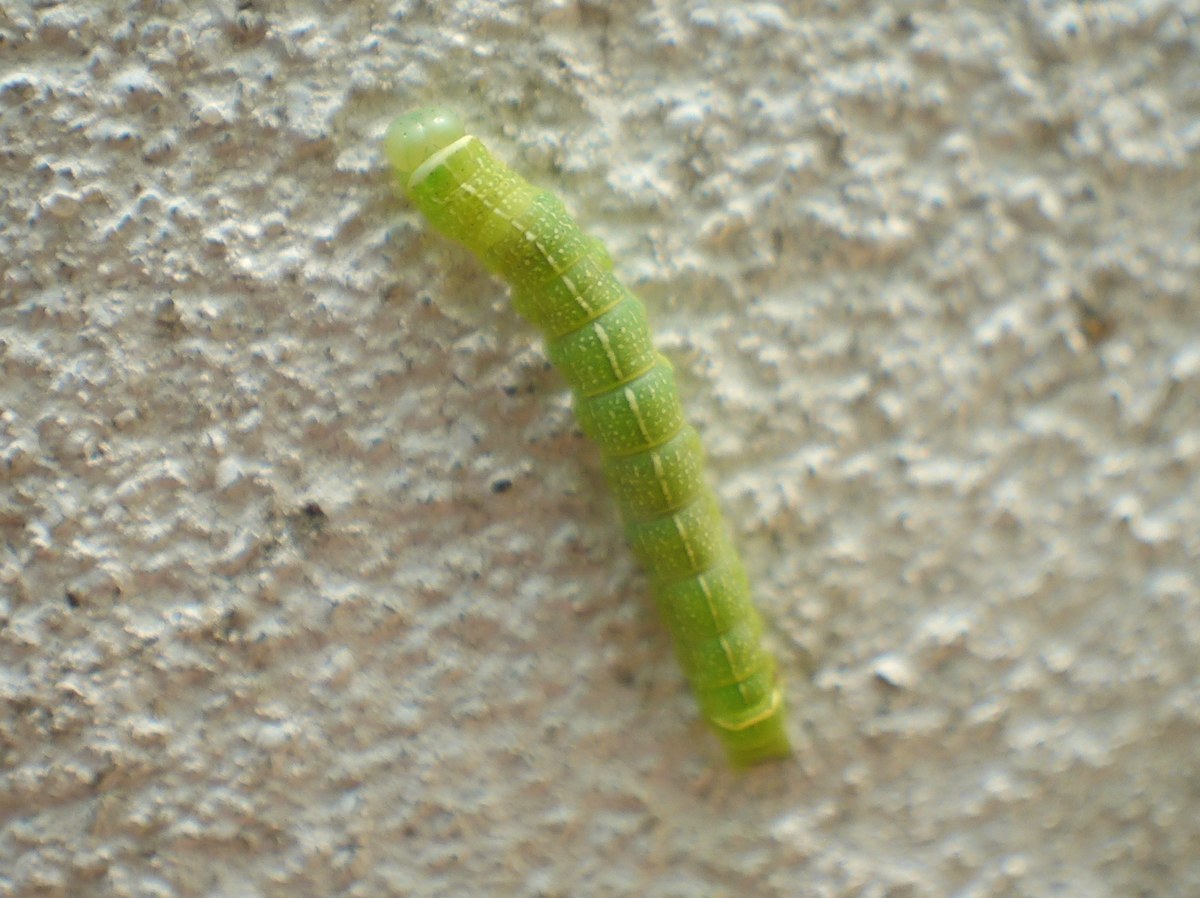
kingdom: Animalia
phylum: Arthropoda
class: Insecta
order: Lepidoptera
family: Noctuidae
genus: Orthosia
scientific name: Orthosia cerasi
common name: Common quaker
